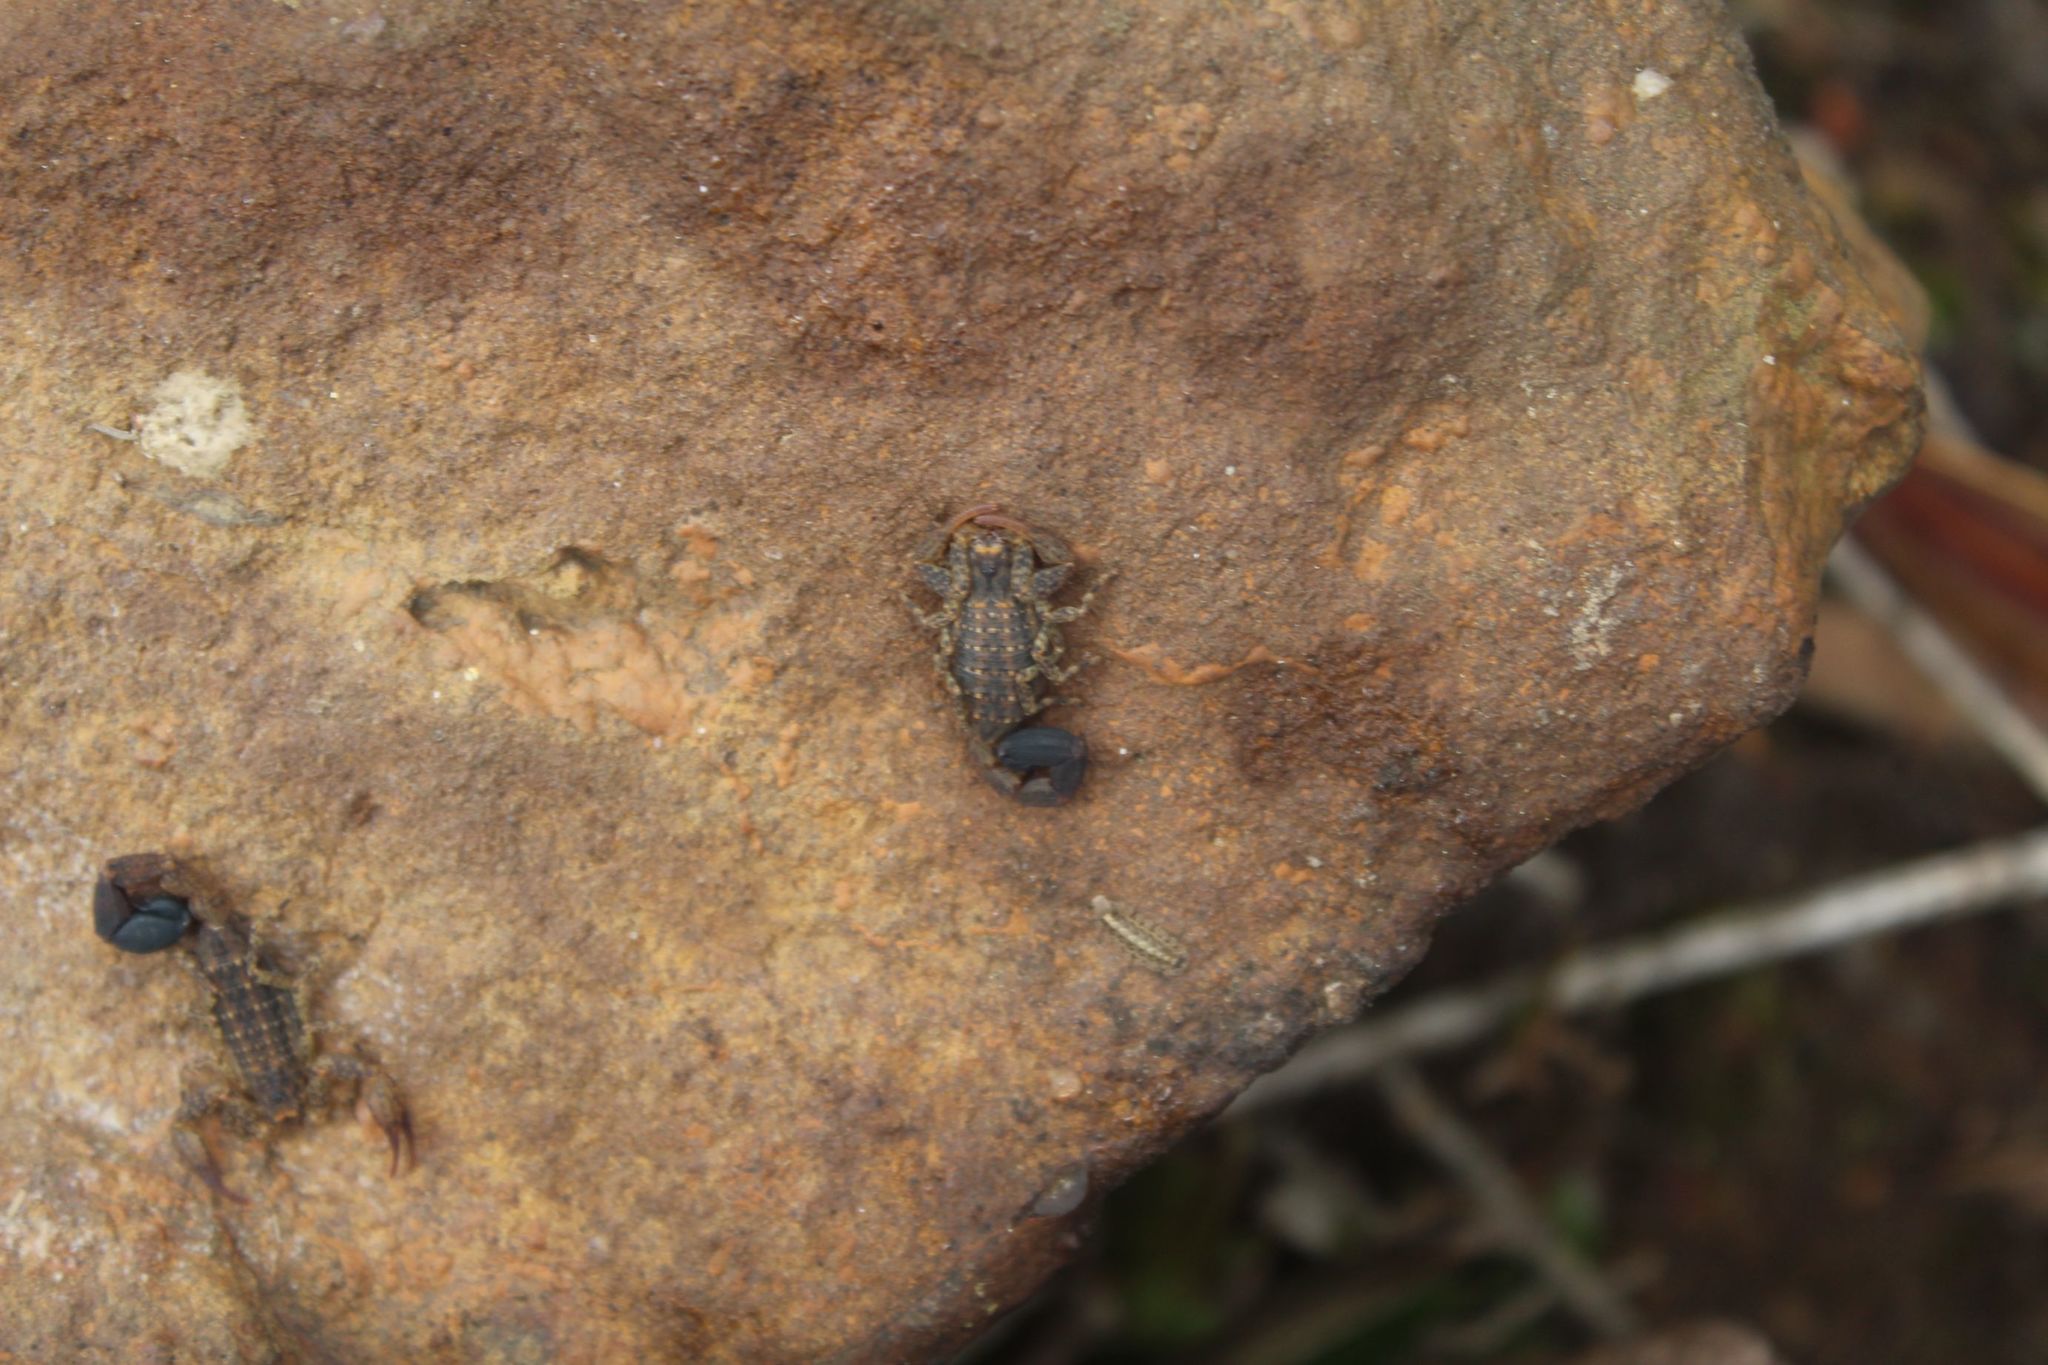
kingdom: Animalia
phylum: Arthropoda
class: Arachnida
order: Scorpiones
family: Buthidae
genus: Tityus
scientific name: Tityus columbianus
